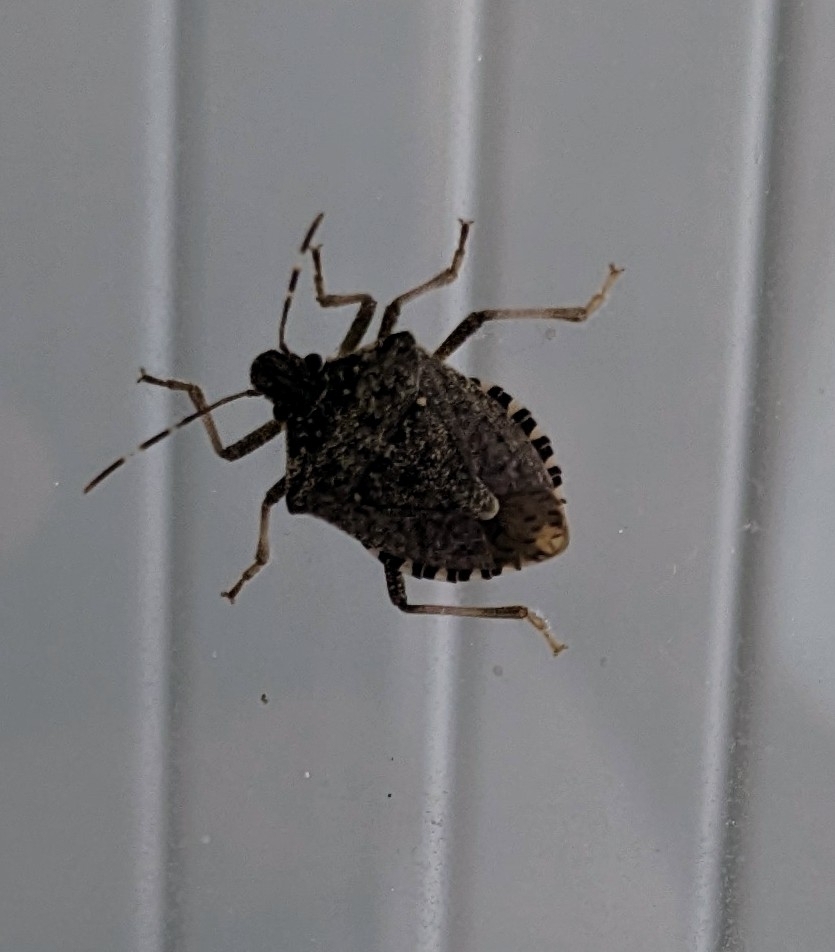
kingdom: Animalia
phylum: Arthropoda
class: Insecta
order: Hemiptera
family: Pentatomidae
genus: Halyomorpha
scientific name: Halyomorpha halys
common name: Brown marmorated stink bug
